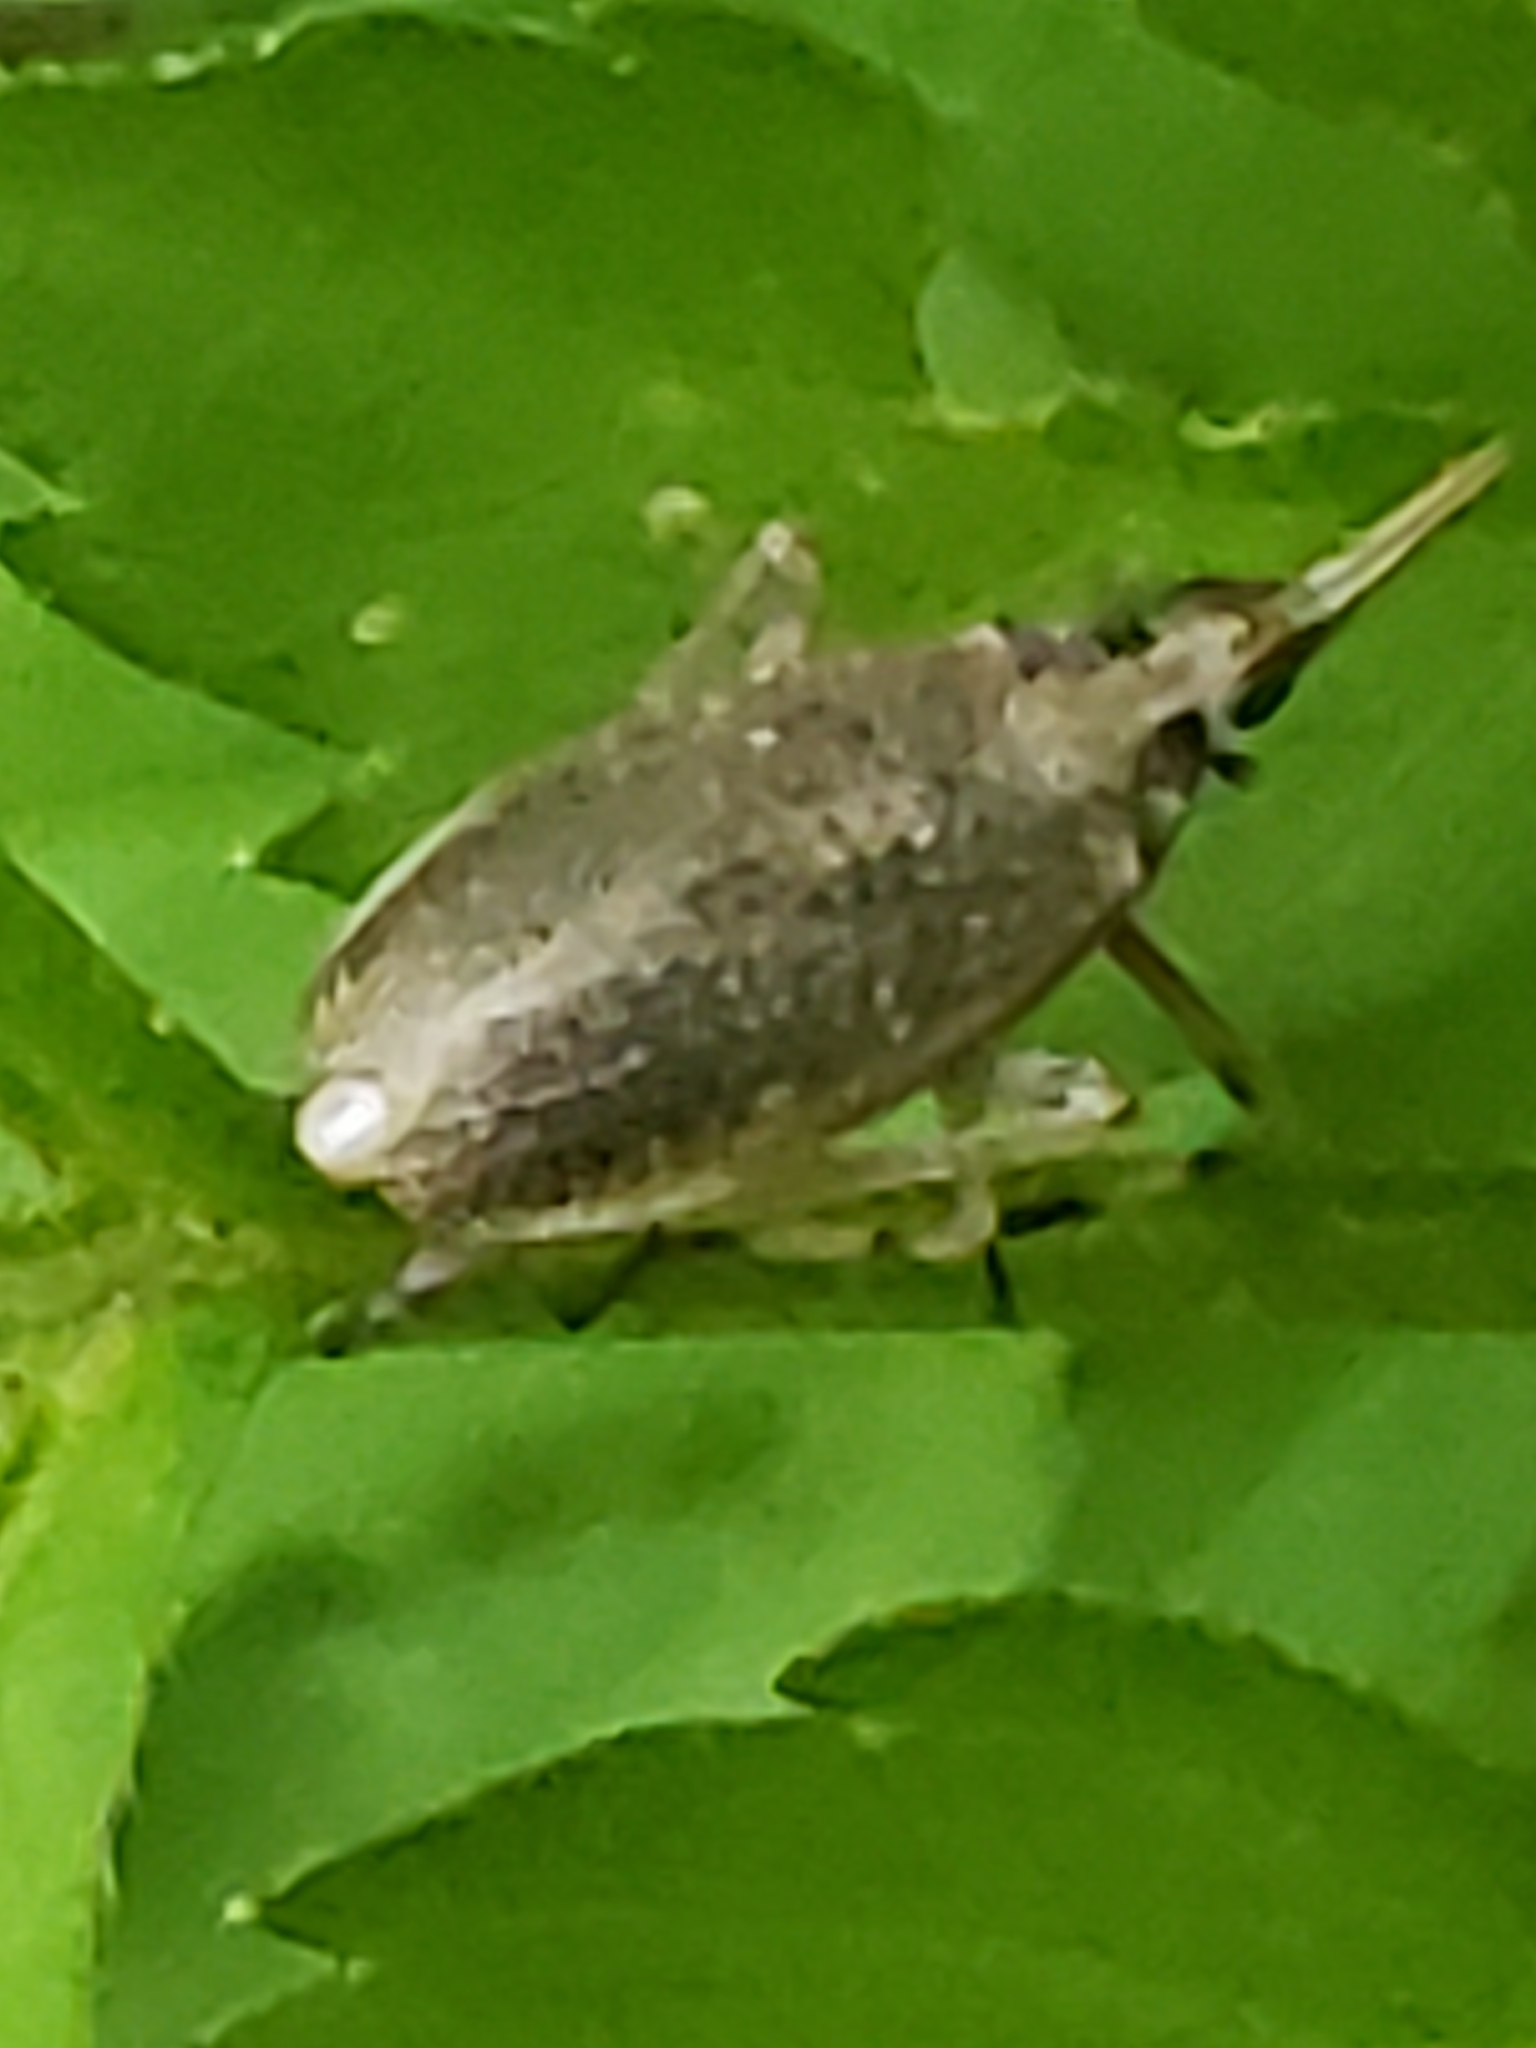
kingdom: Animalia
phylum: Arthropoda
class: Insecta
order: Hemiptera
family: Dictyopharidae
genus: Scolops
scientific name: Scolops sulcipes
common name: Partridge planthopper
